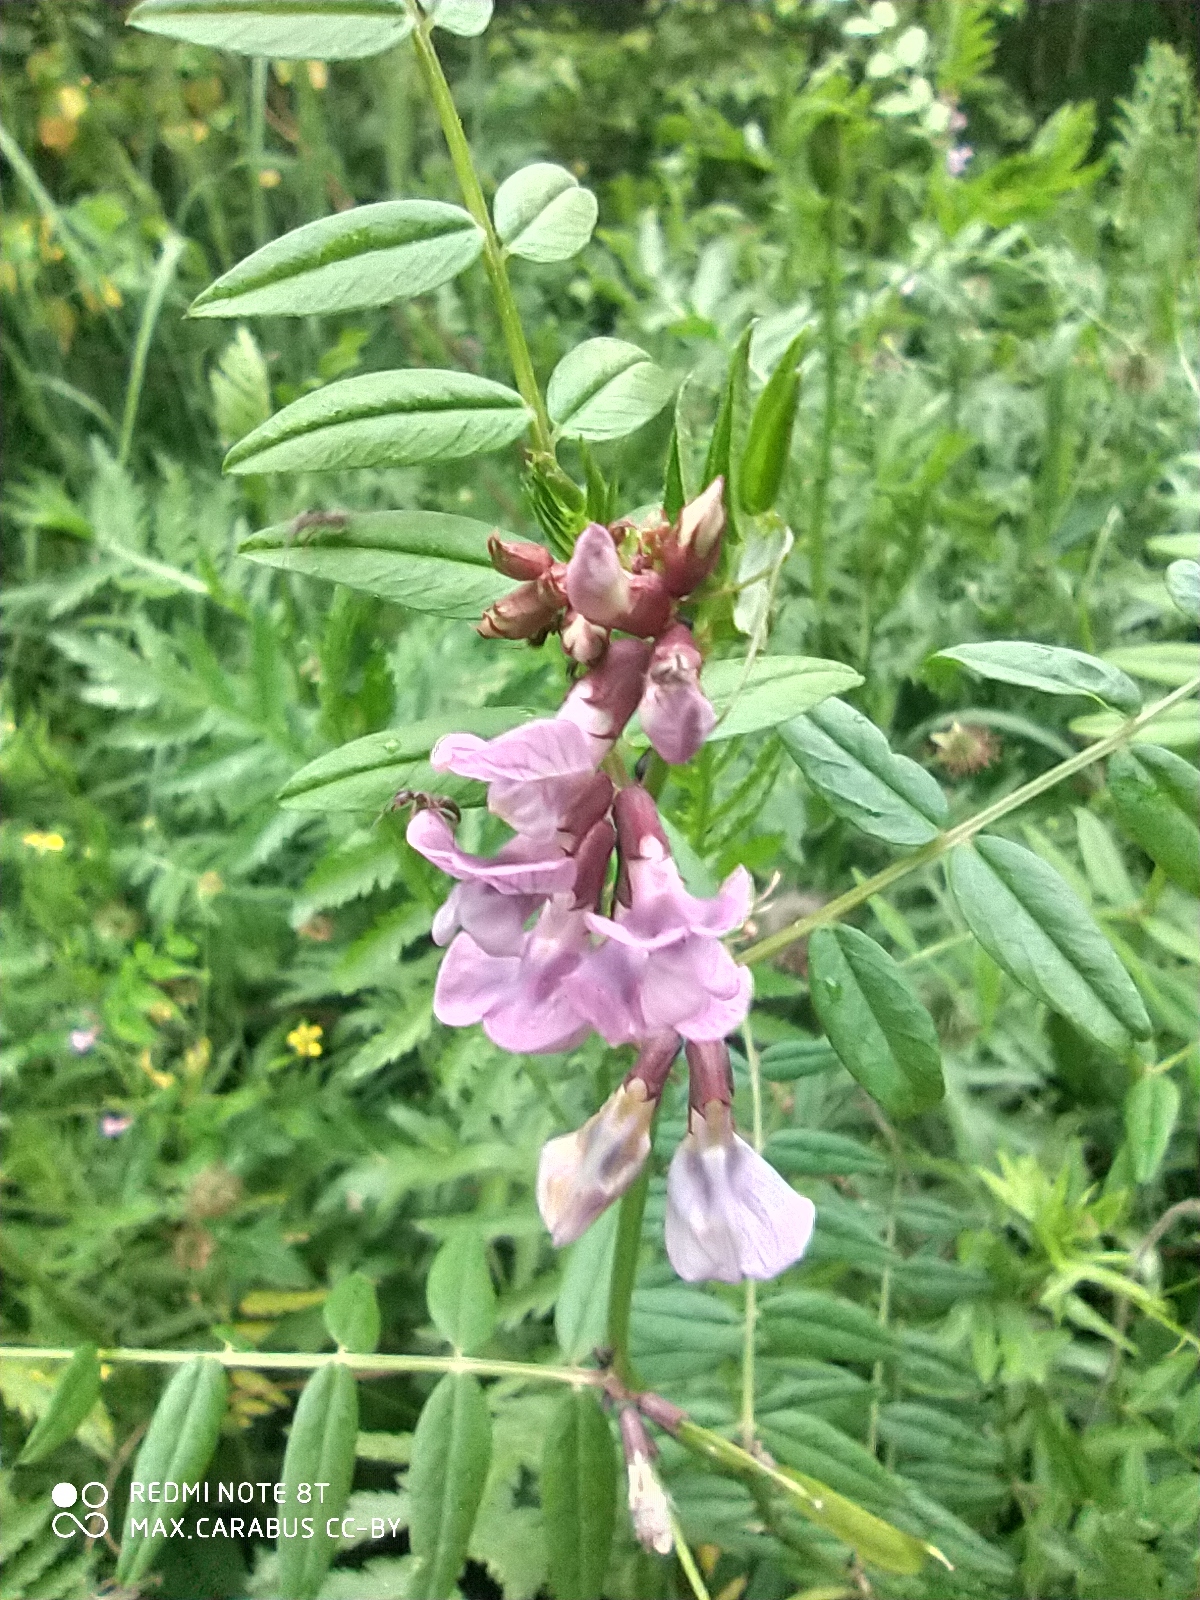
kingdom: Plantae
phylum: Tracheophyta
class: Magnoliopsida
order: Fabales
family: Fabaceae
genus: Vicia
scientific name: Vicia sepium
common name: Bush vetch
